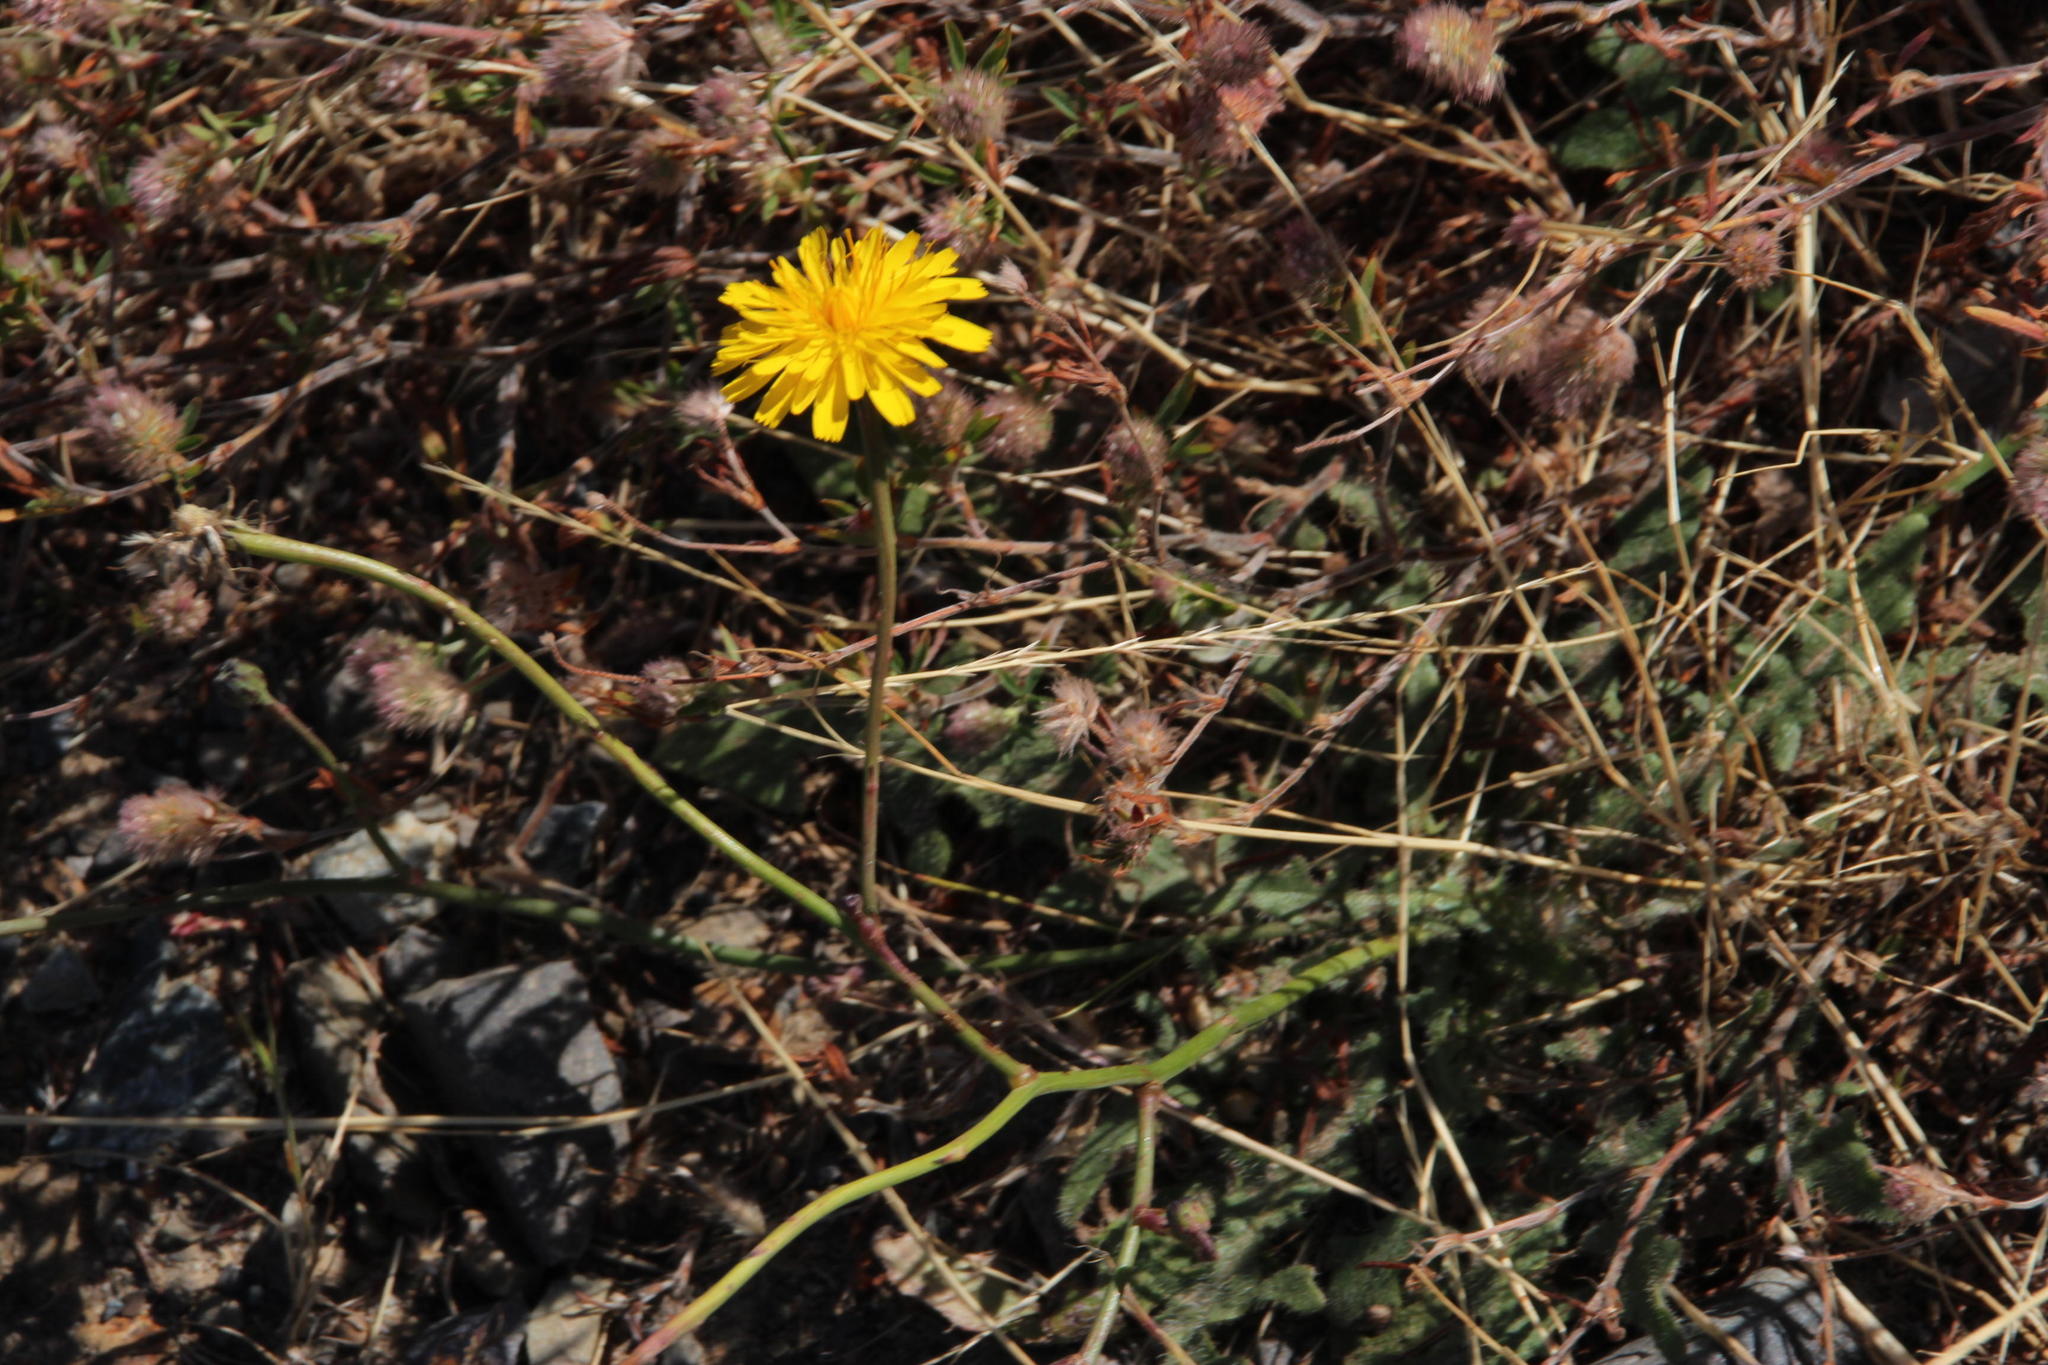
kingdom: Plantae
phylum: Tracheophyta
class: Magnoliopsida
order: Asterales
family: Asteraceae
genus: Hypochaeris
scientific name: Hypochaeris radicata
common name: Flatweed
